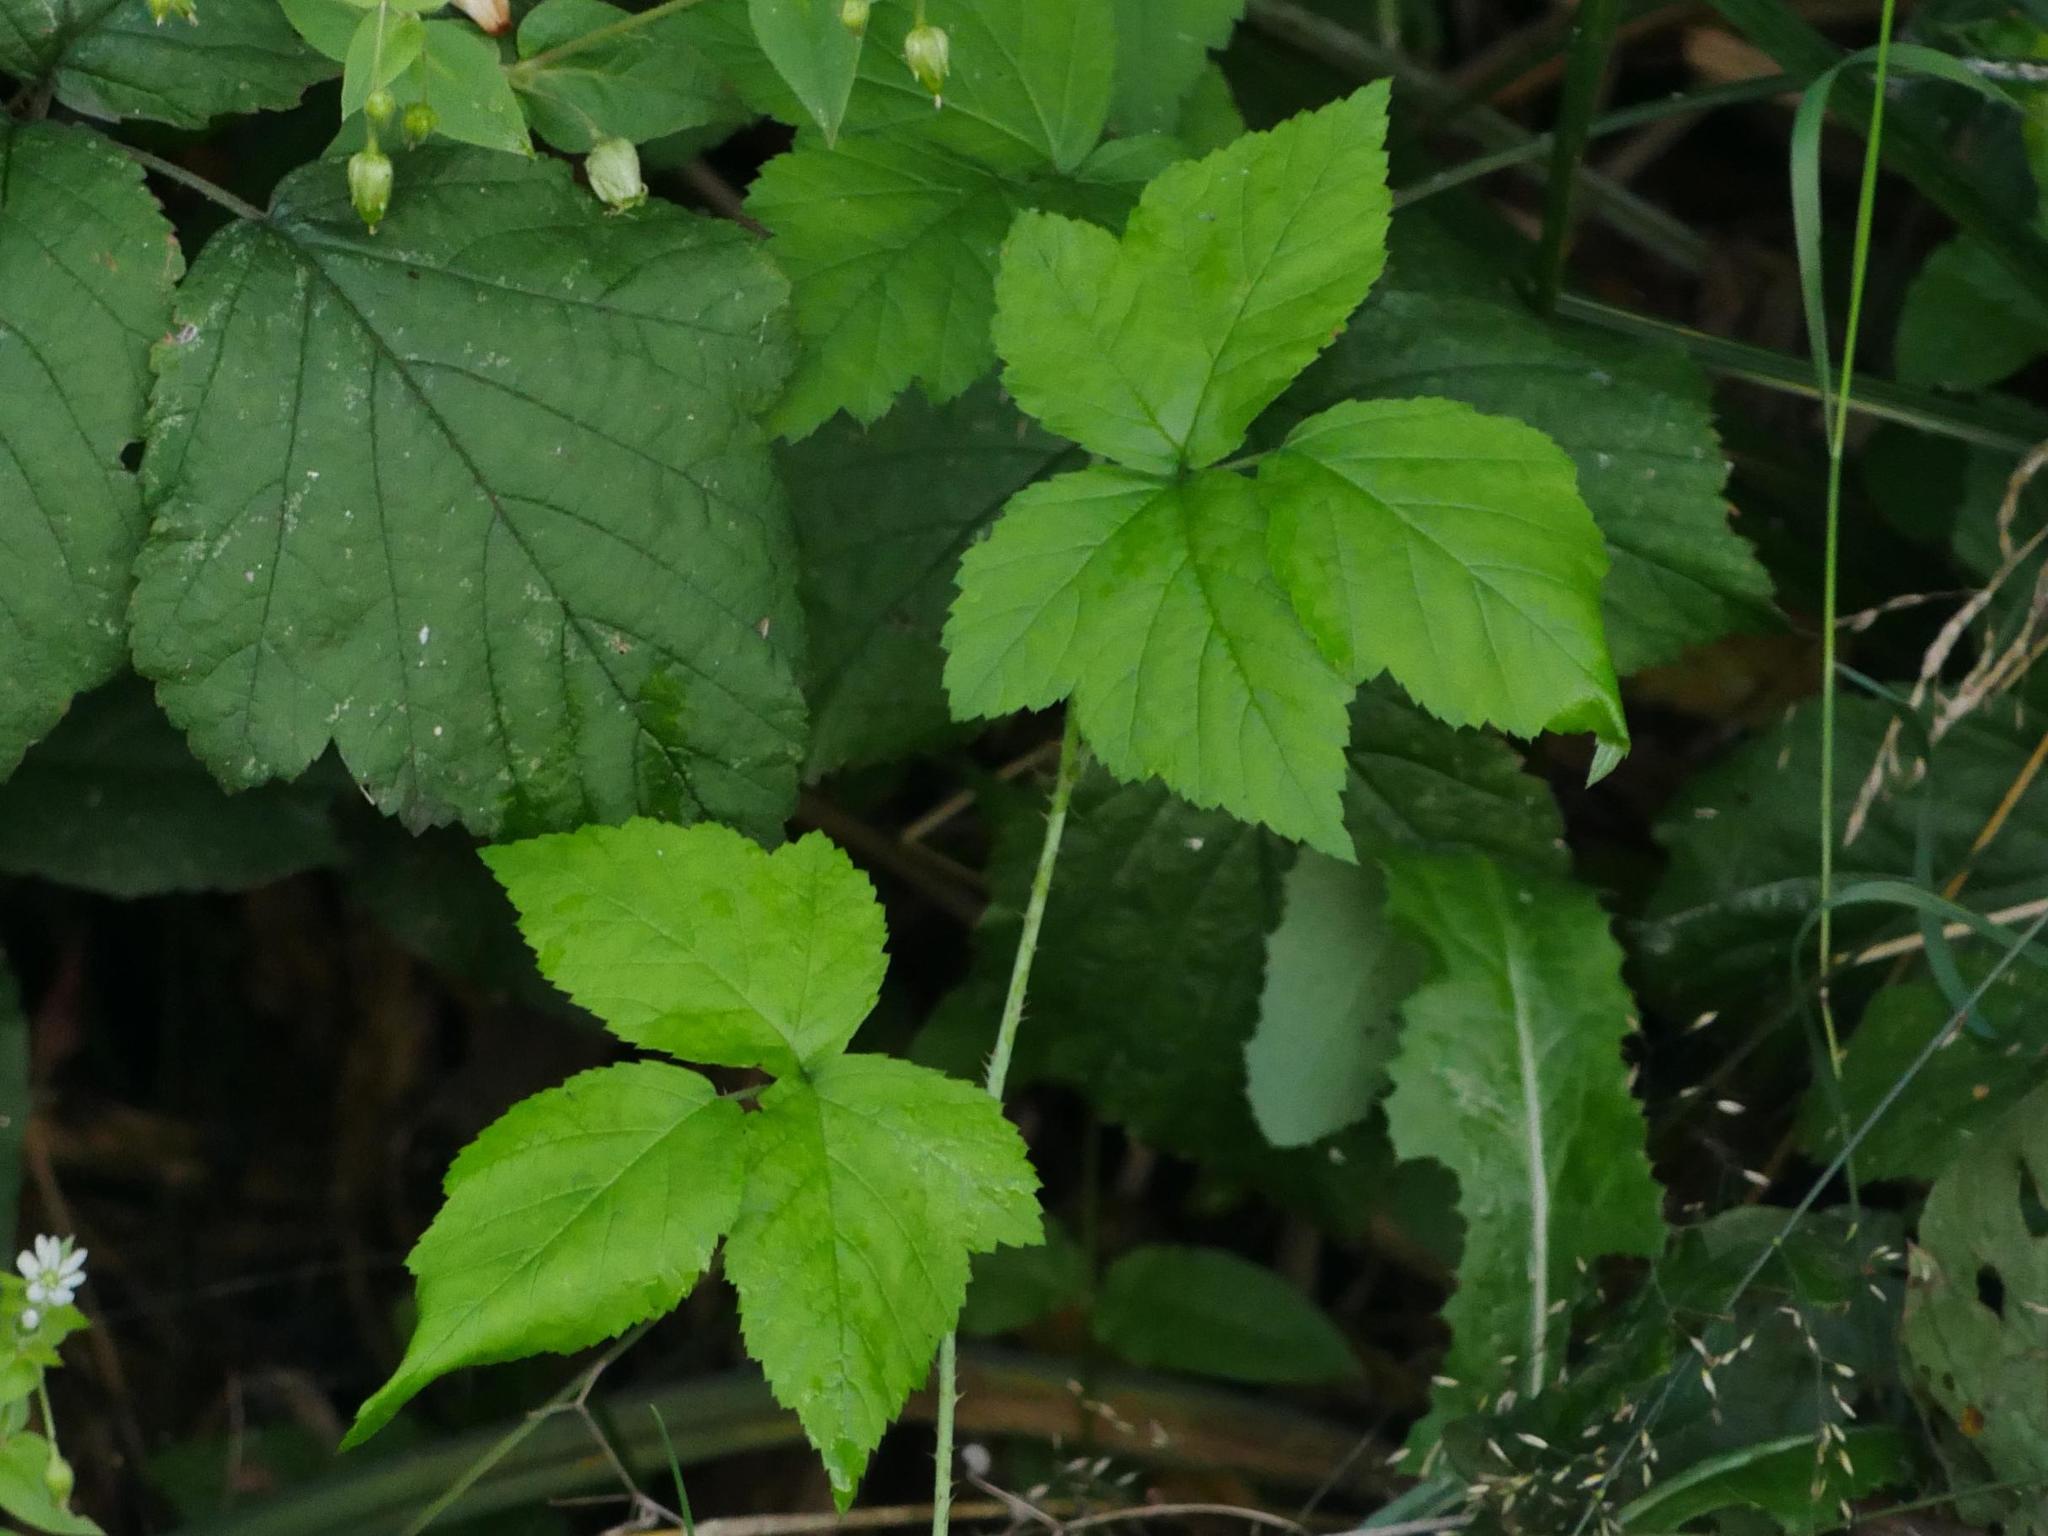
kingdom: Plantae
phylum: Tracheophyta
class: Magnoliopsida
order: Rosales
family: Rosaceae
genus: Rubus
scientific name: Rubus caesius
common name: Dewberry
